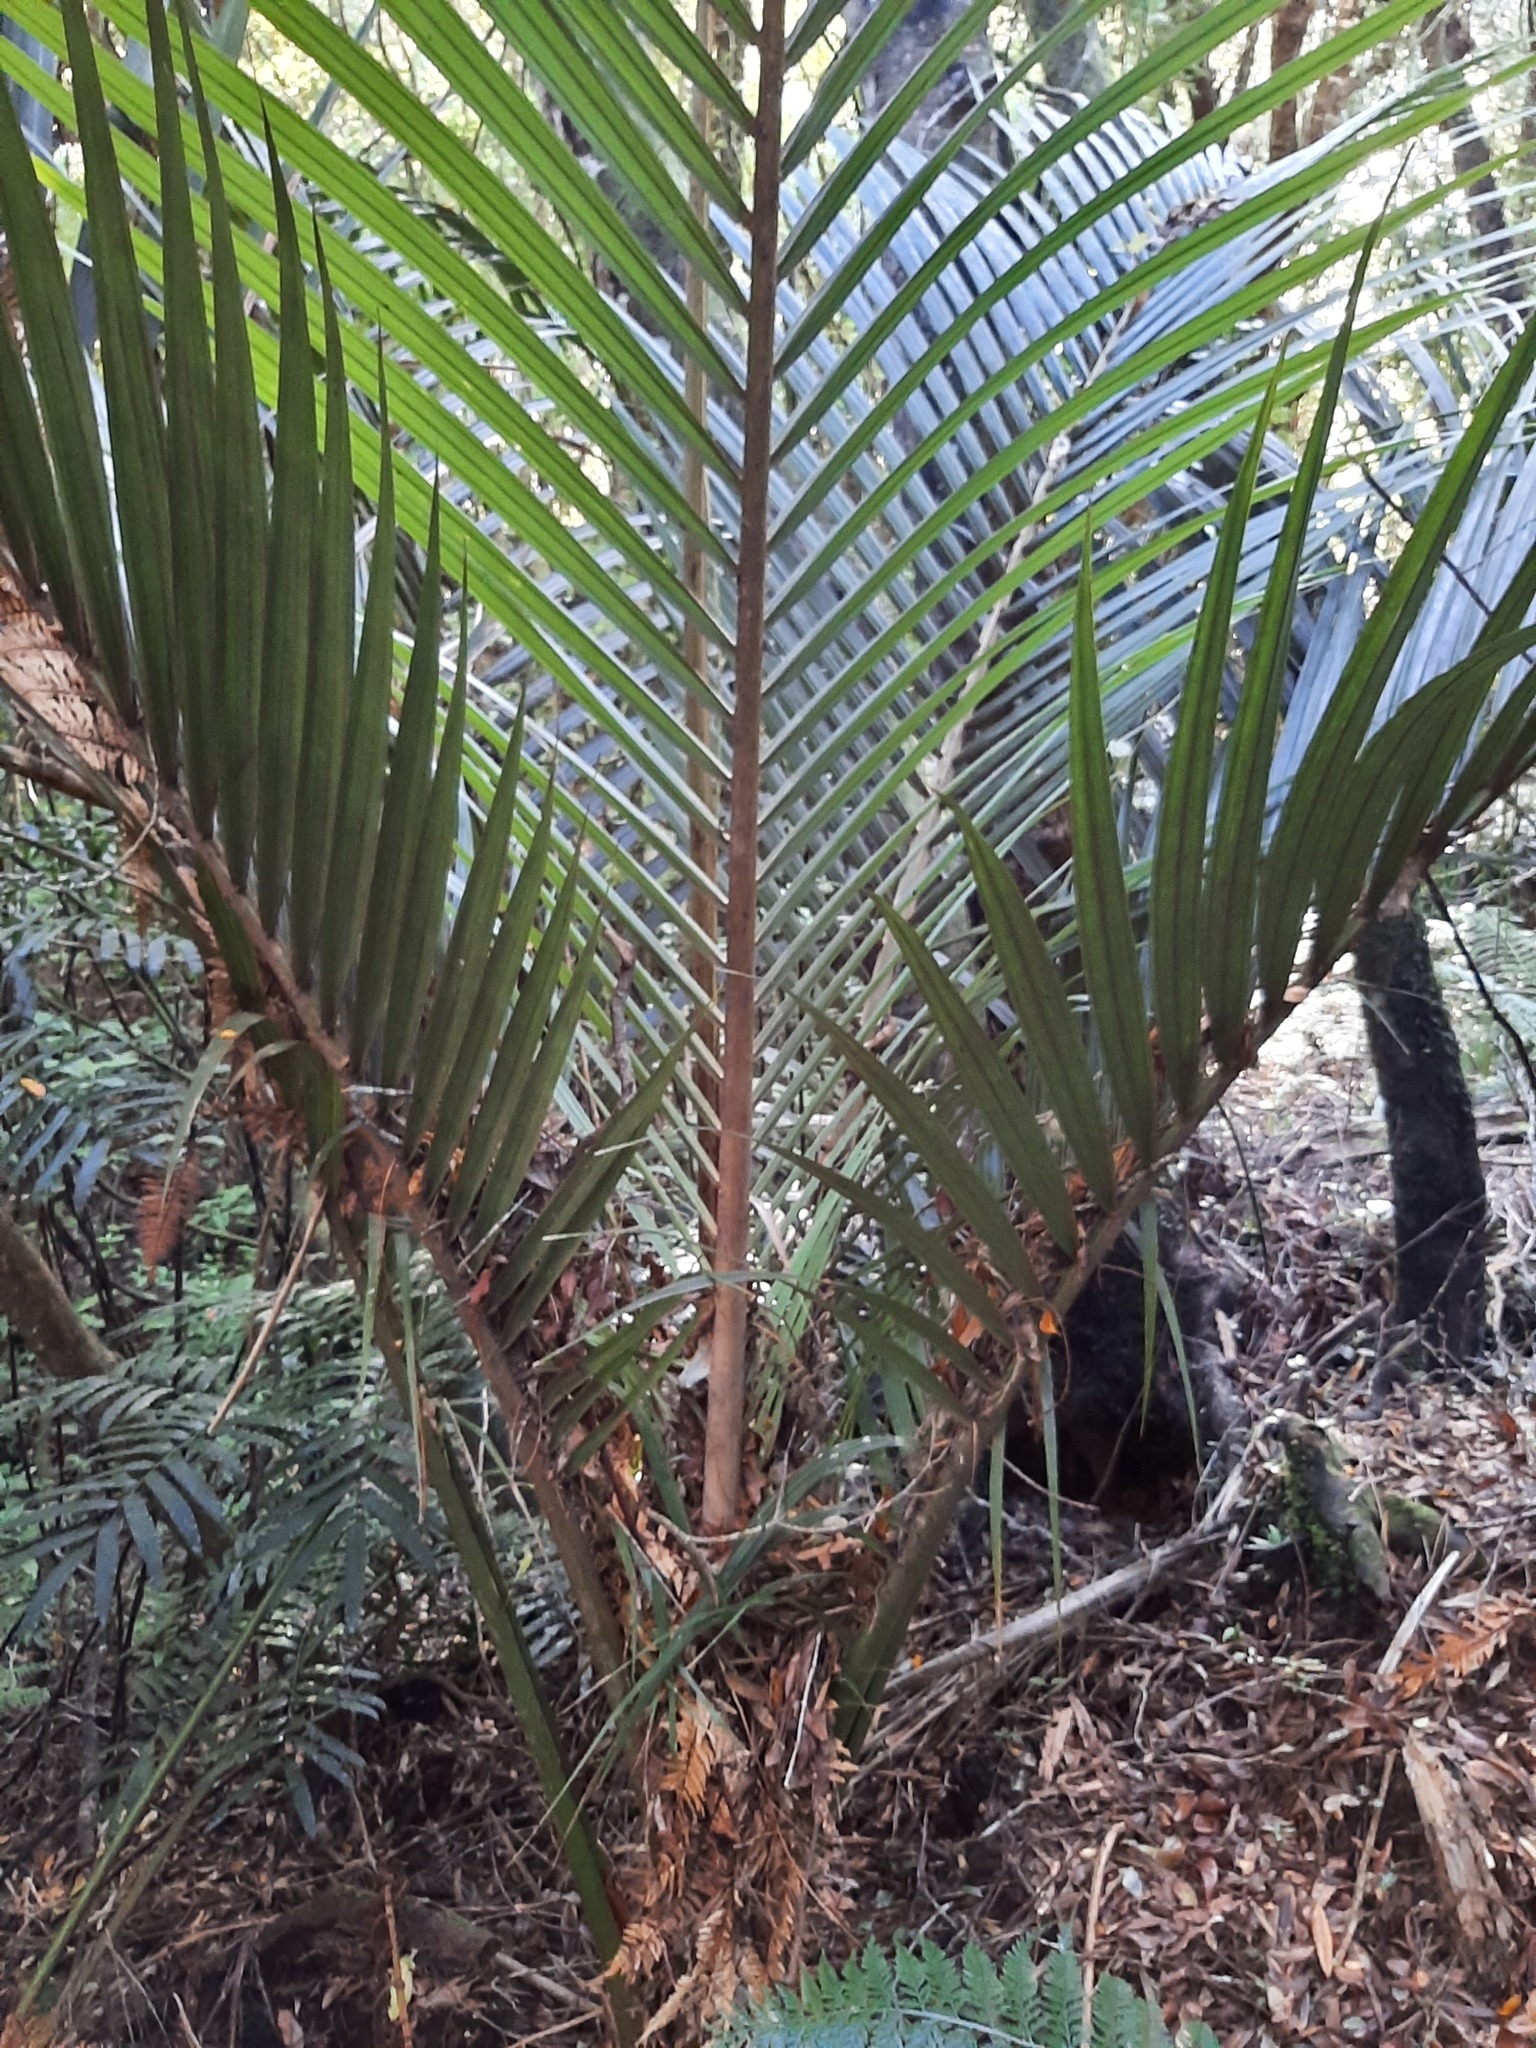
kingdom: Plantae
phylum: Tracheophyta
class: Liliopsida
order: Arecales
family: Arecaceae
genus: Rhopalostylis
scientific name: Rhopalostylis sapida
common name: Feather-duster palm
